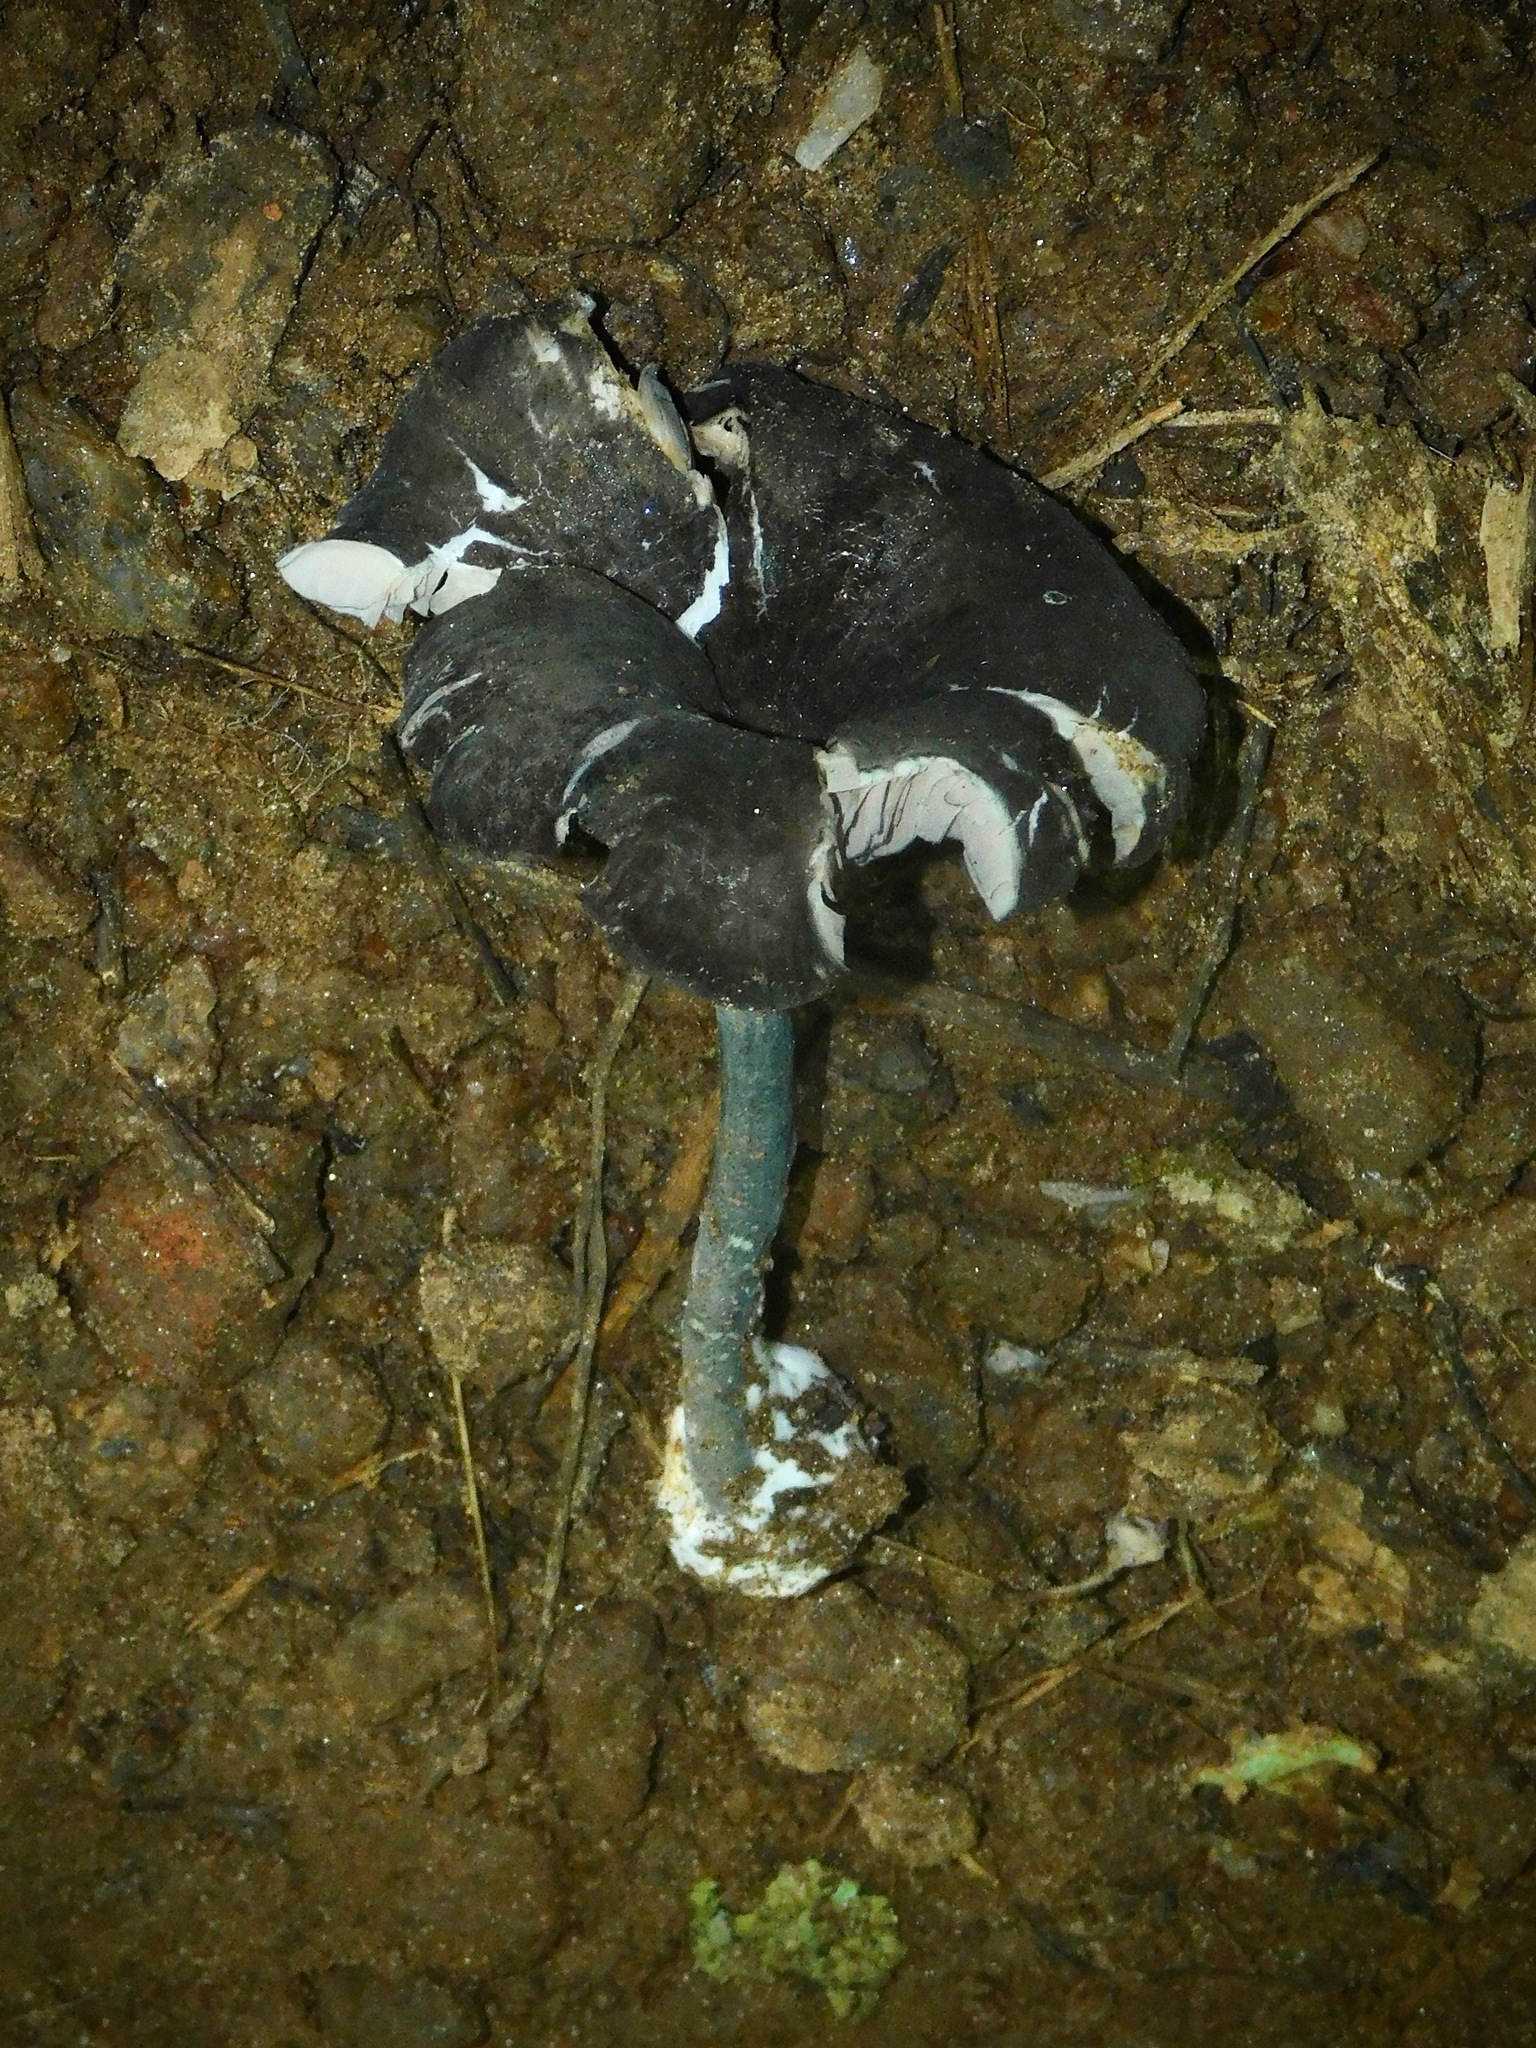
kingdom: Fungi
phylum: Basidiomycota
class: Agaricomycetes
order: Agaricales
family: Entolomataceae
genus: Entoloma
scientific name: Entoloma serrulatum
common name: Blue edge pinkgill
